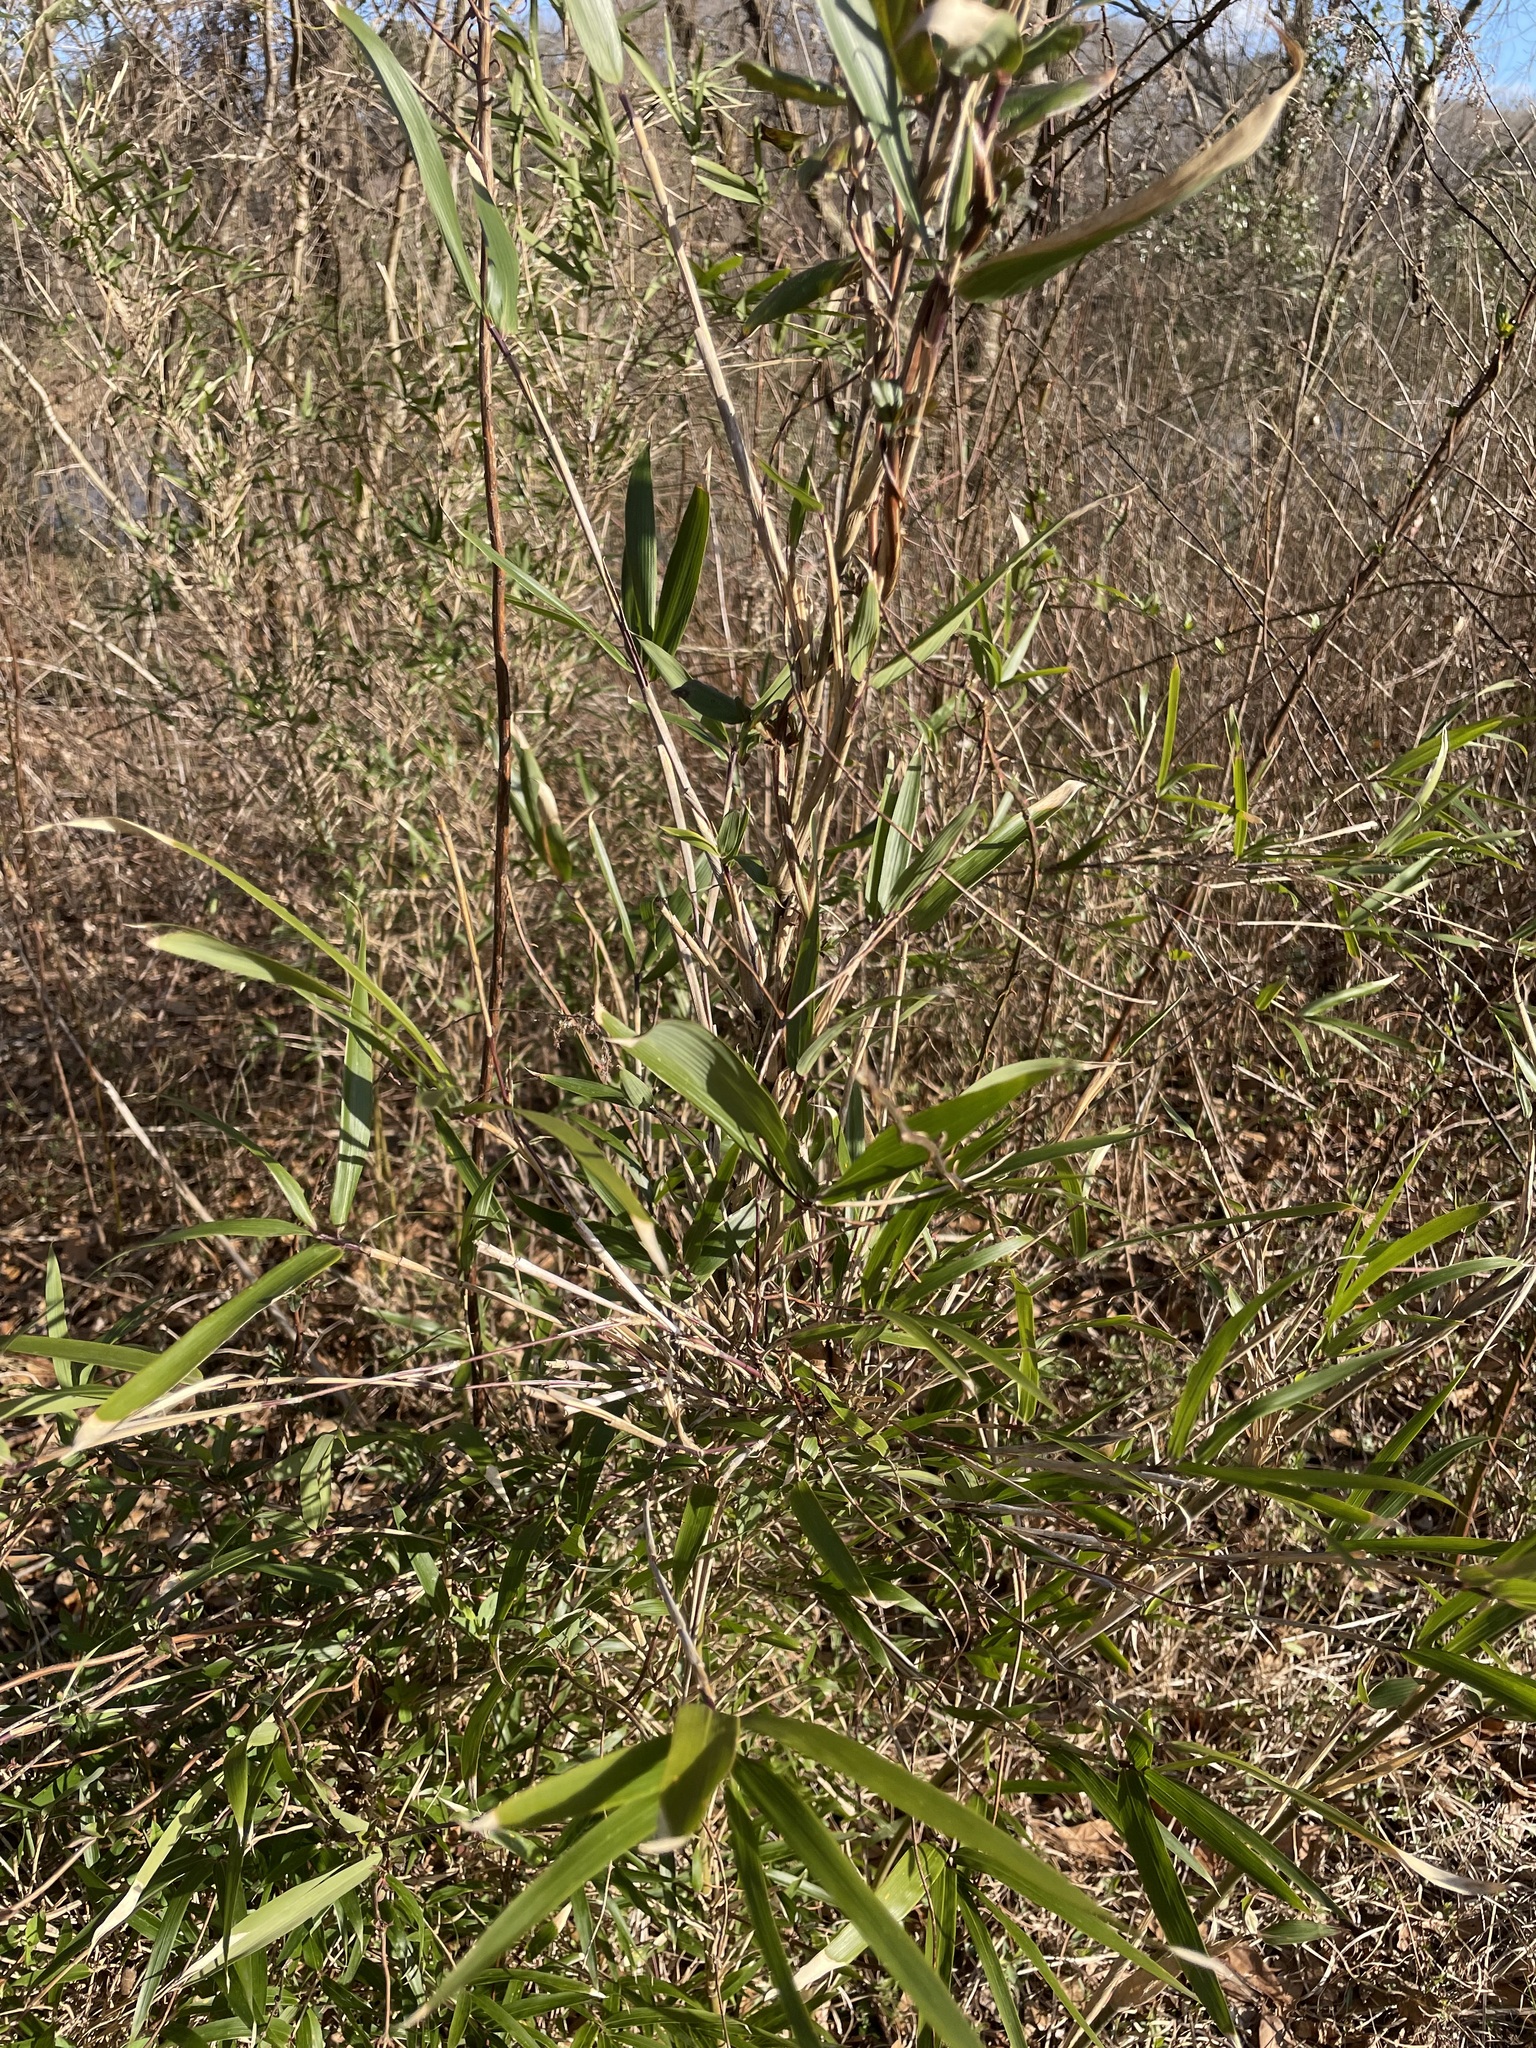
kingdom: Plantae
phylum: Tracheophyta
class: Liliopsida
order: Poales
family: Poaceae
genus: Arundinaria
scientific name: Arundinaria gigantea
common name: Giant cane
